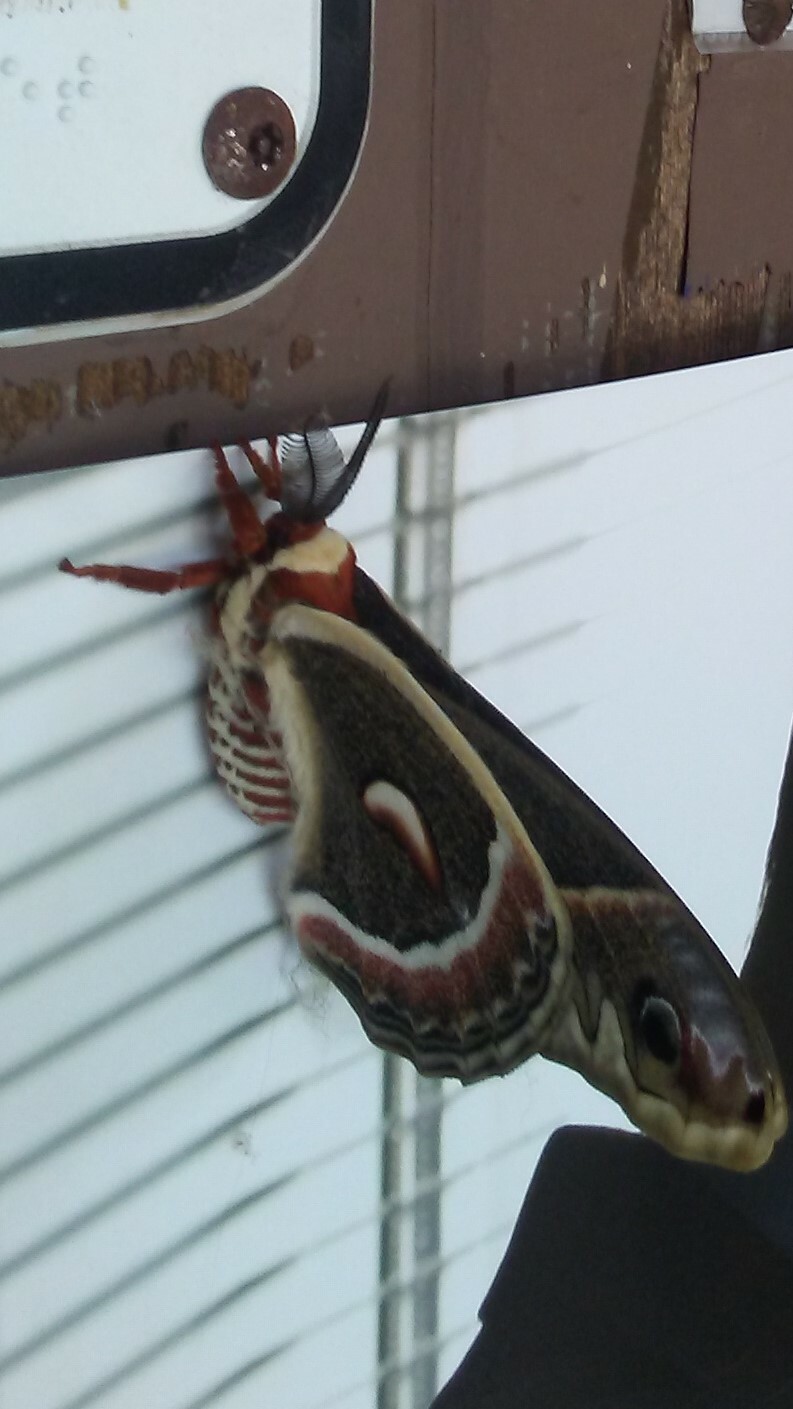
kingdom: Animalia
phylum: Arthropoda
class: Insecta
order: Lepidoptera
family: Saturniidae
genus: Hyalophora
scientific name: Hyalophora cecropia
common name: Cecropia silkmoth
